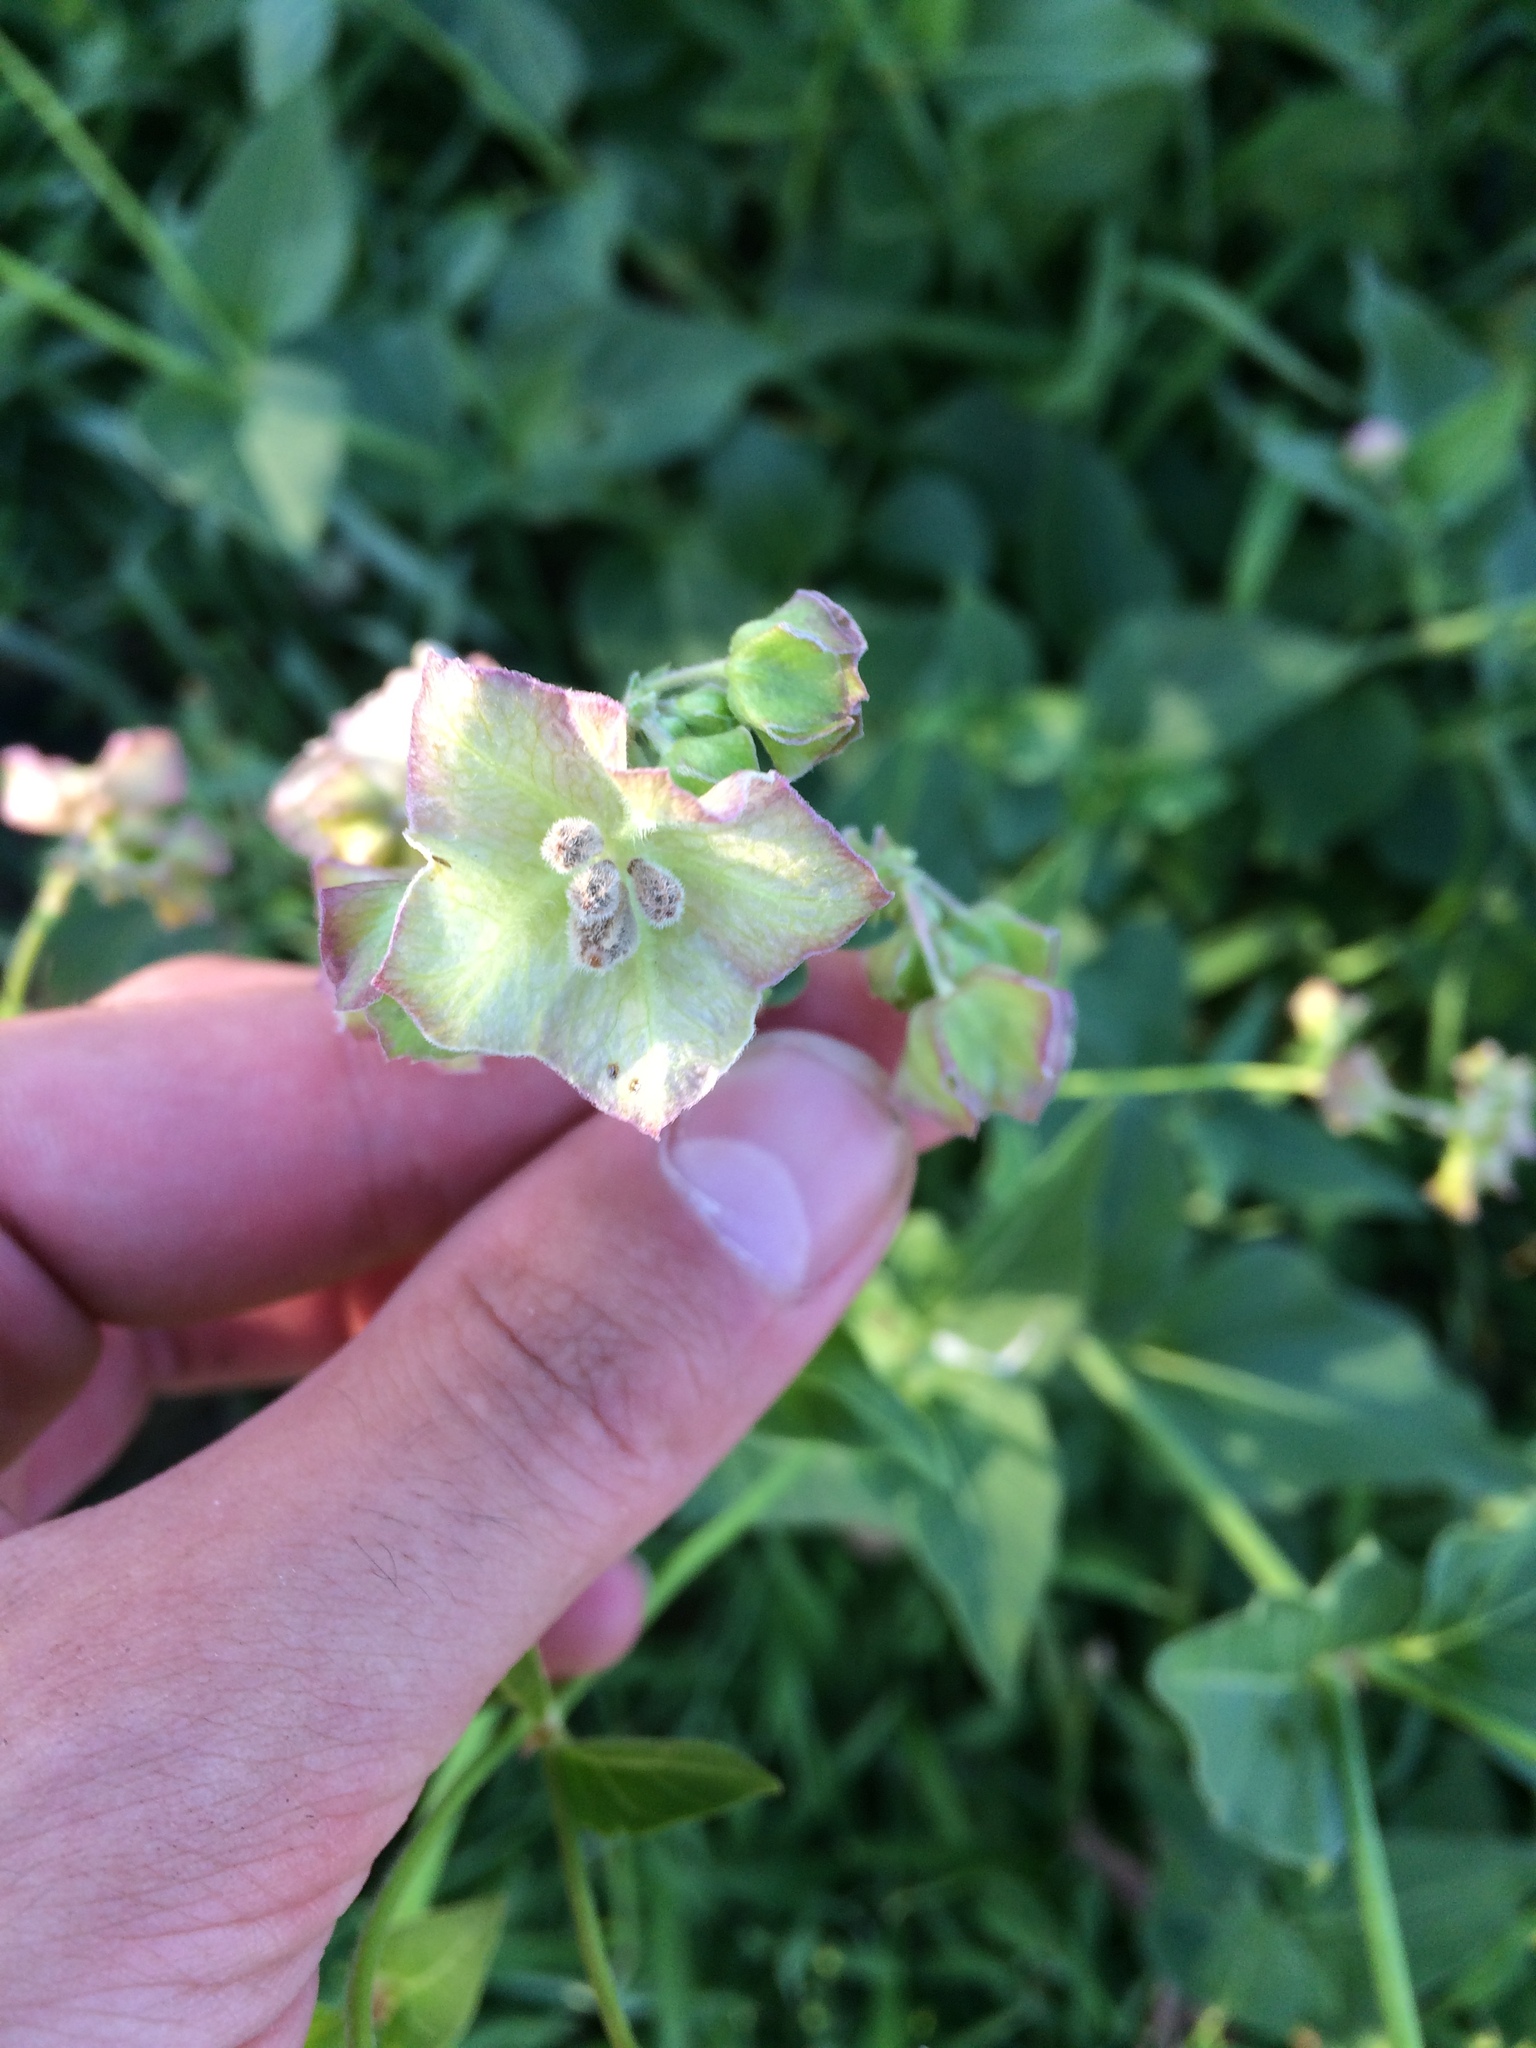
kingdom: Plantae
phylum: Tracheophyta
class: Magnoliopsida
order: Caryophyllales
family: Nyctaginaceae
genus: Mirabilis
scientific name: Mirabilis nyctaginea
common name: Umbrella wort
